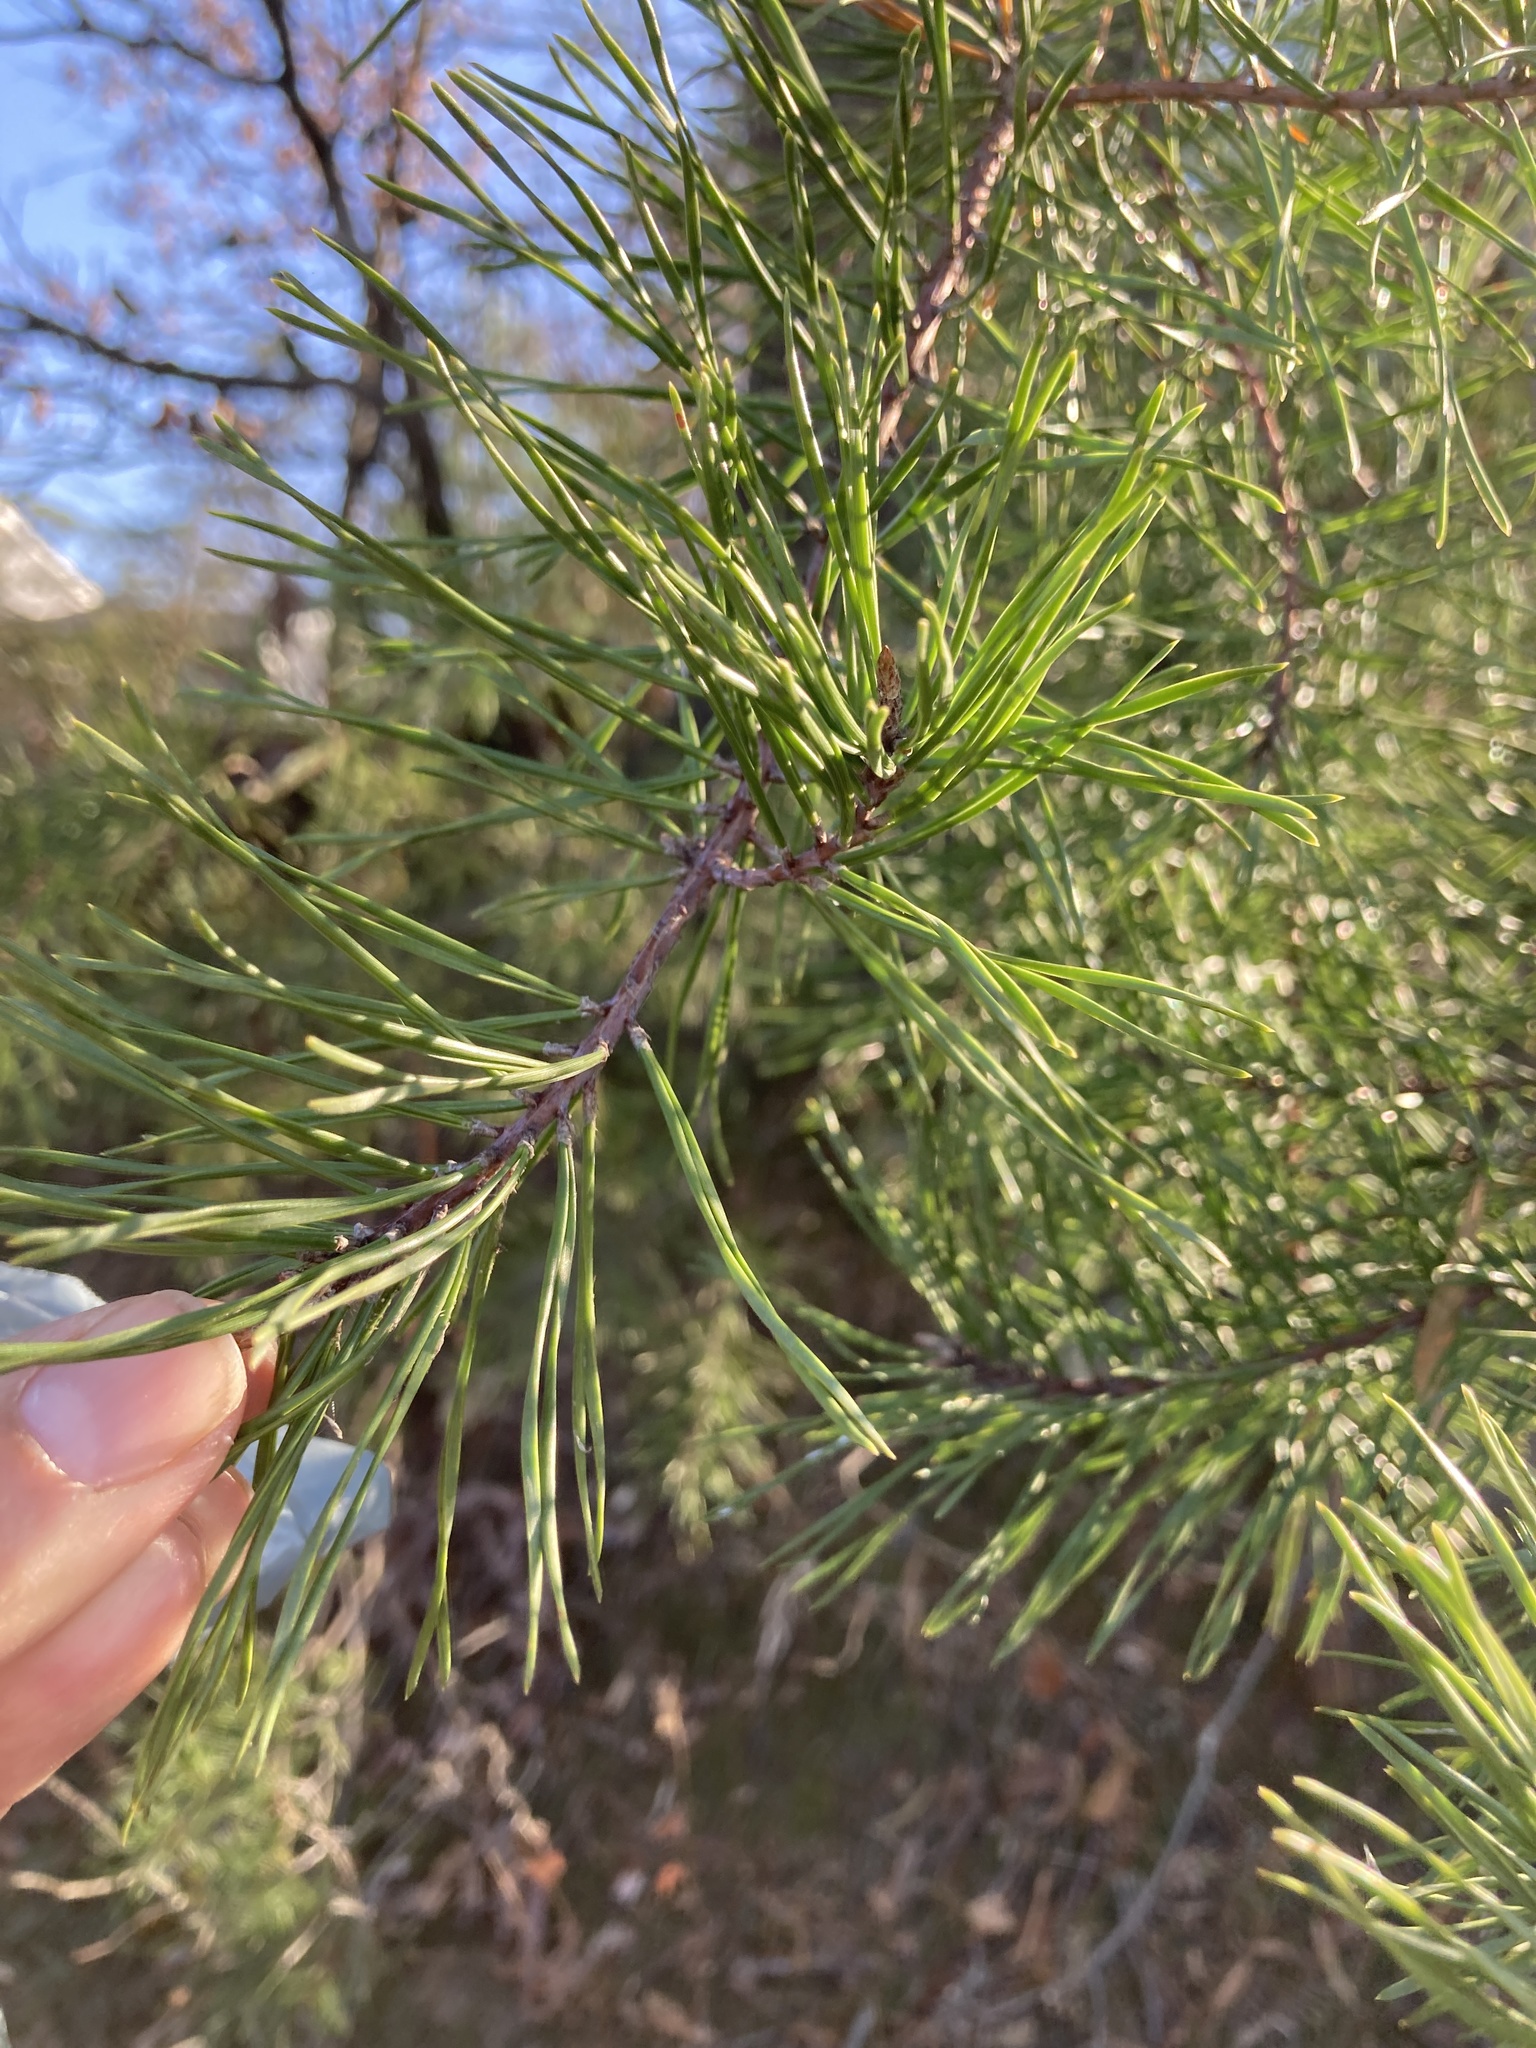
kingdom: Plantae
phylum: Tracheophyta
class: Pinopsida
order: Pinales
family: Pinaceae
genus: Pinus
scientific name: Pinus virginiana
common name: Scrub pine
